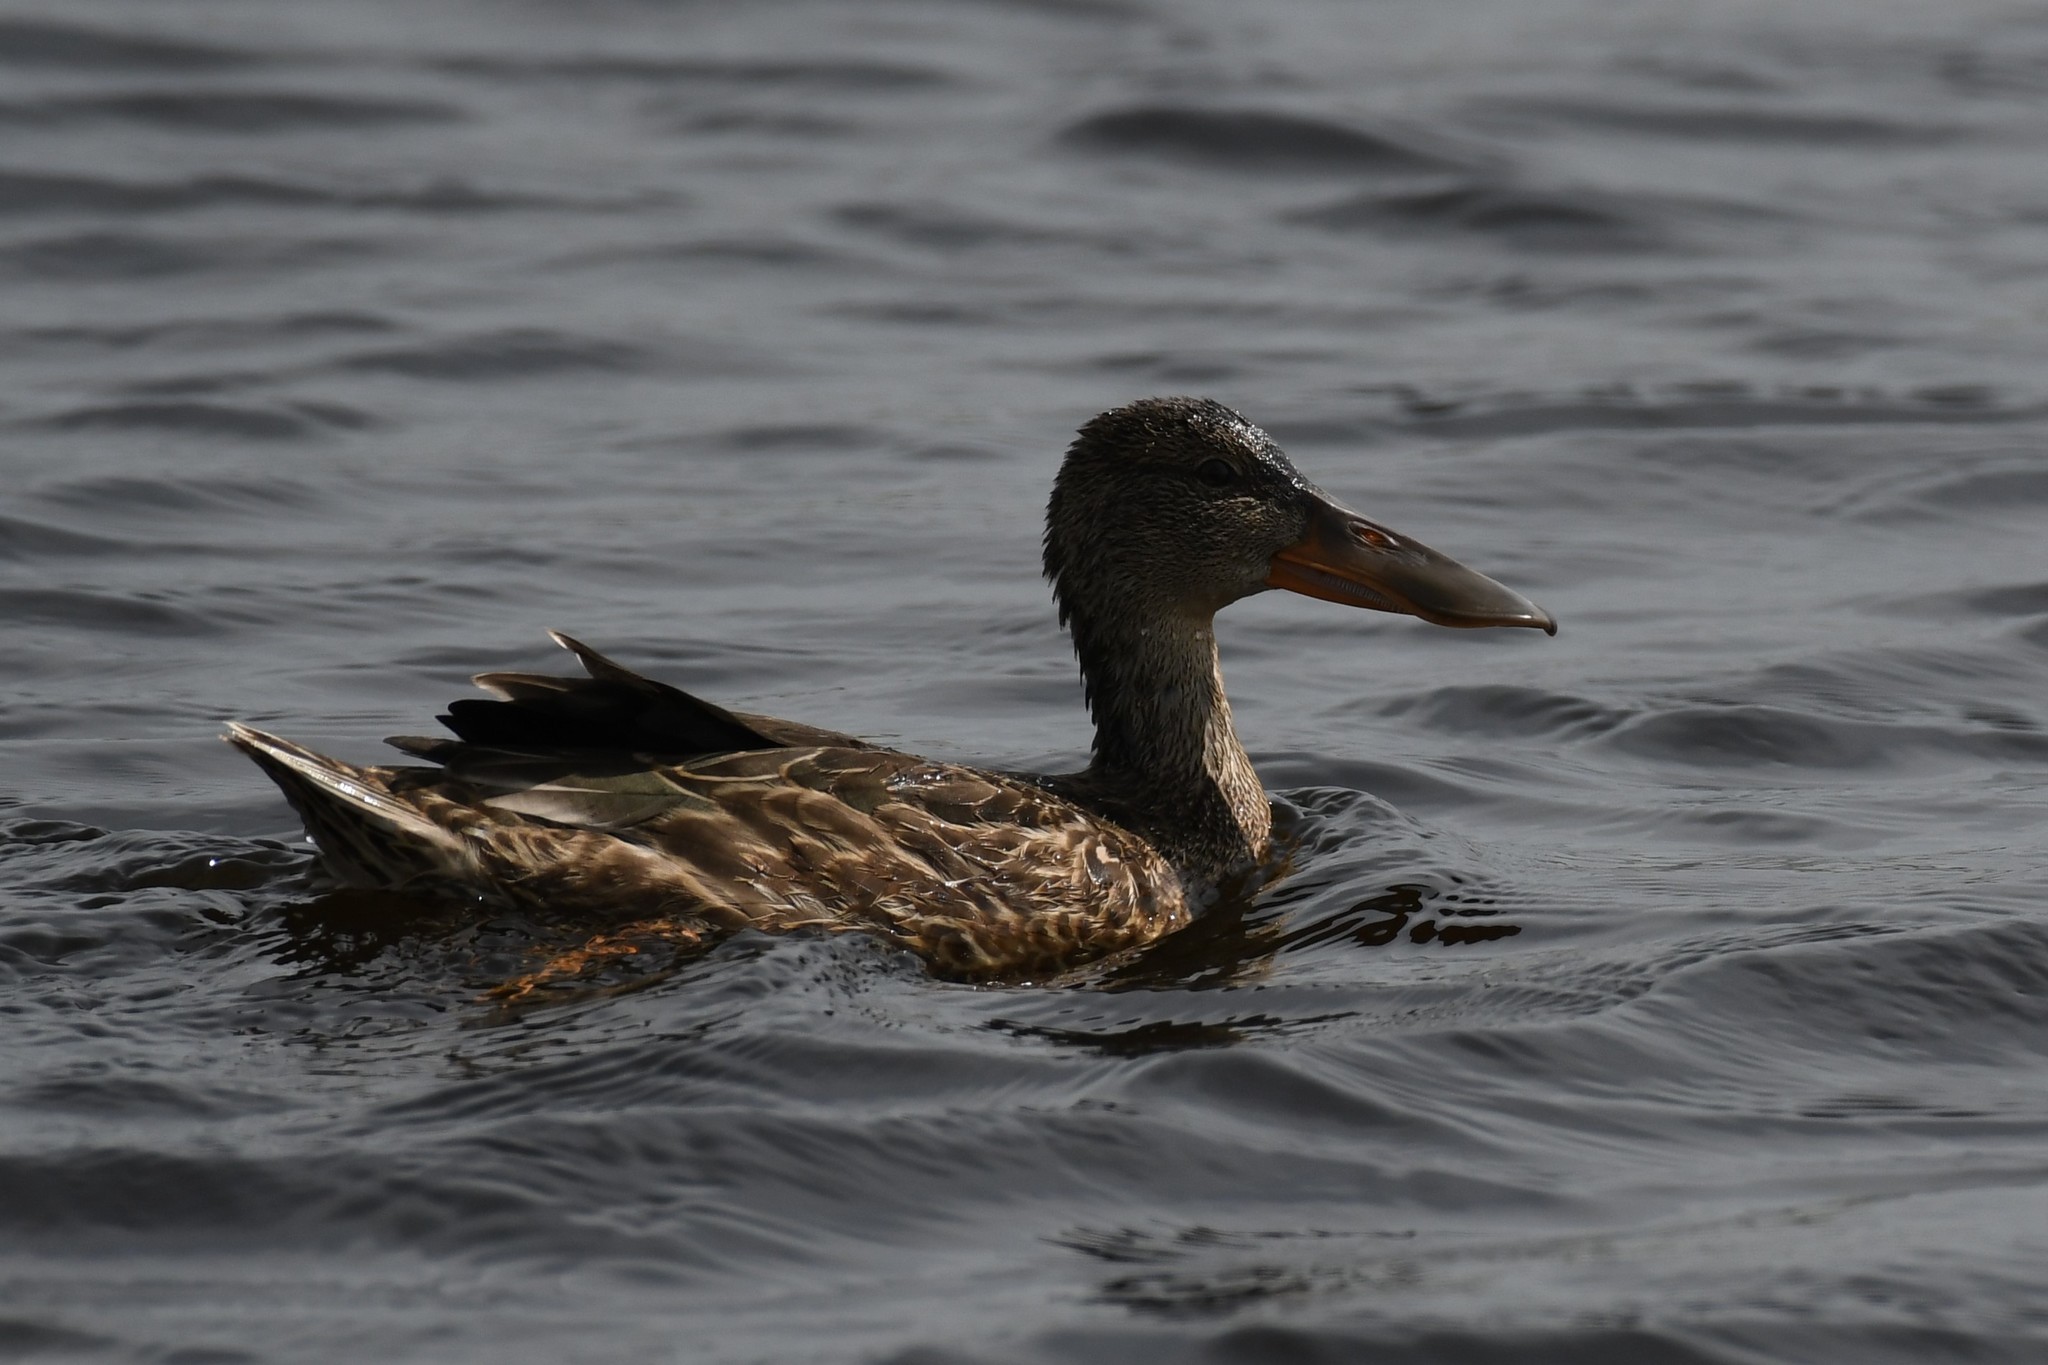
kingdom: Animalia
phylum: Chordata
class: Aves
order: Anseriformes
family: Anatidae
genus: Spatula
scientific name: Spatula clypeata
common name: Northern shoveler
